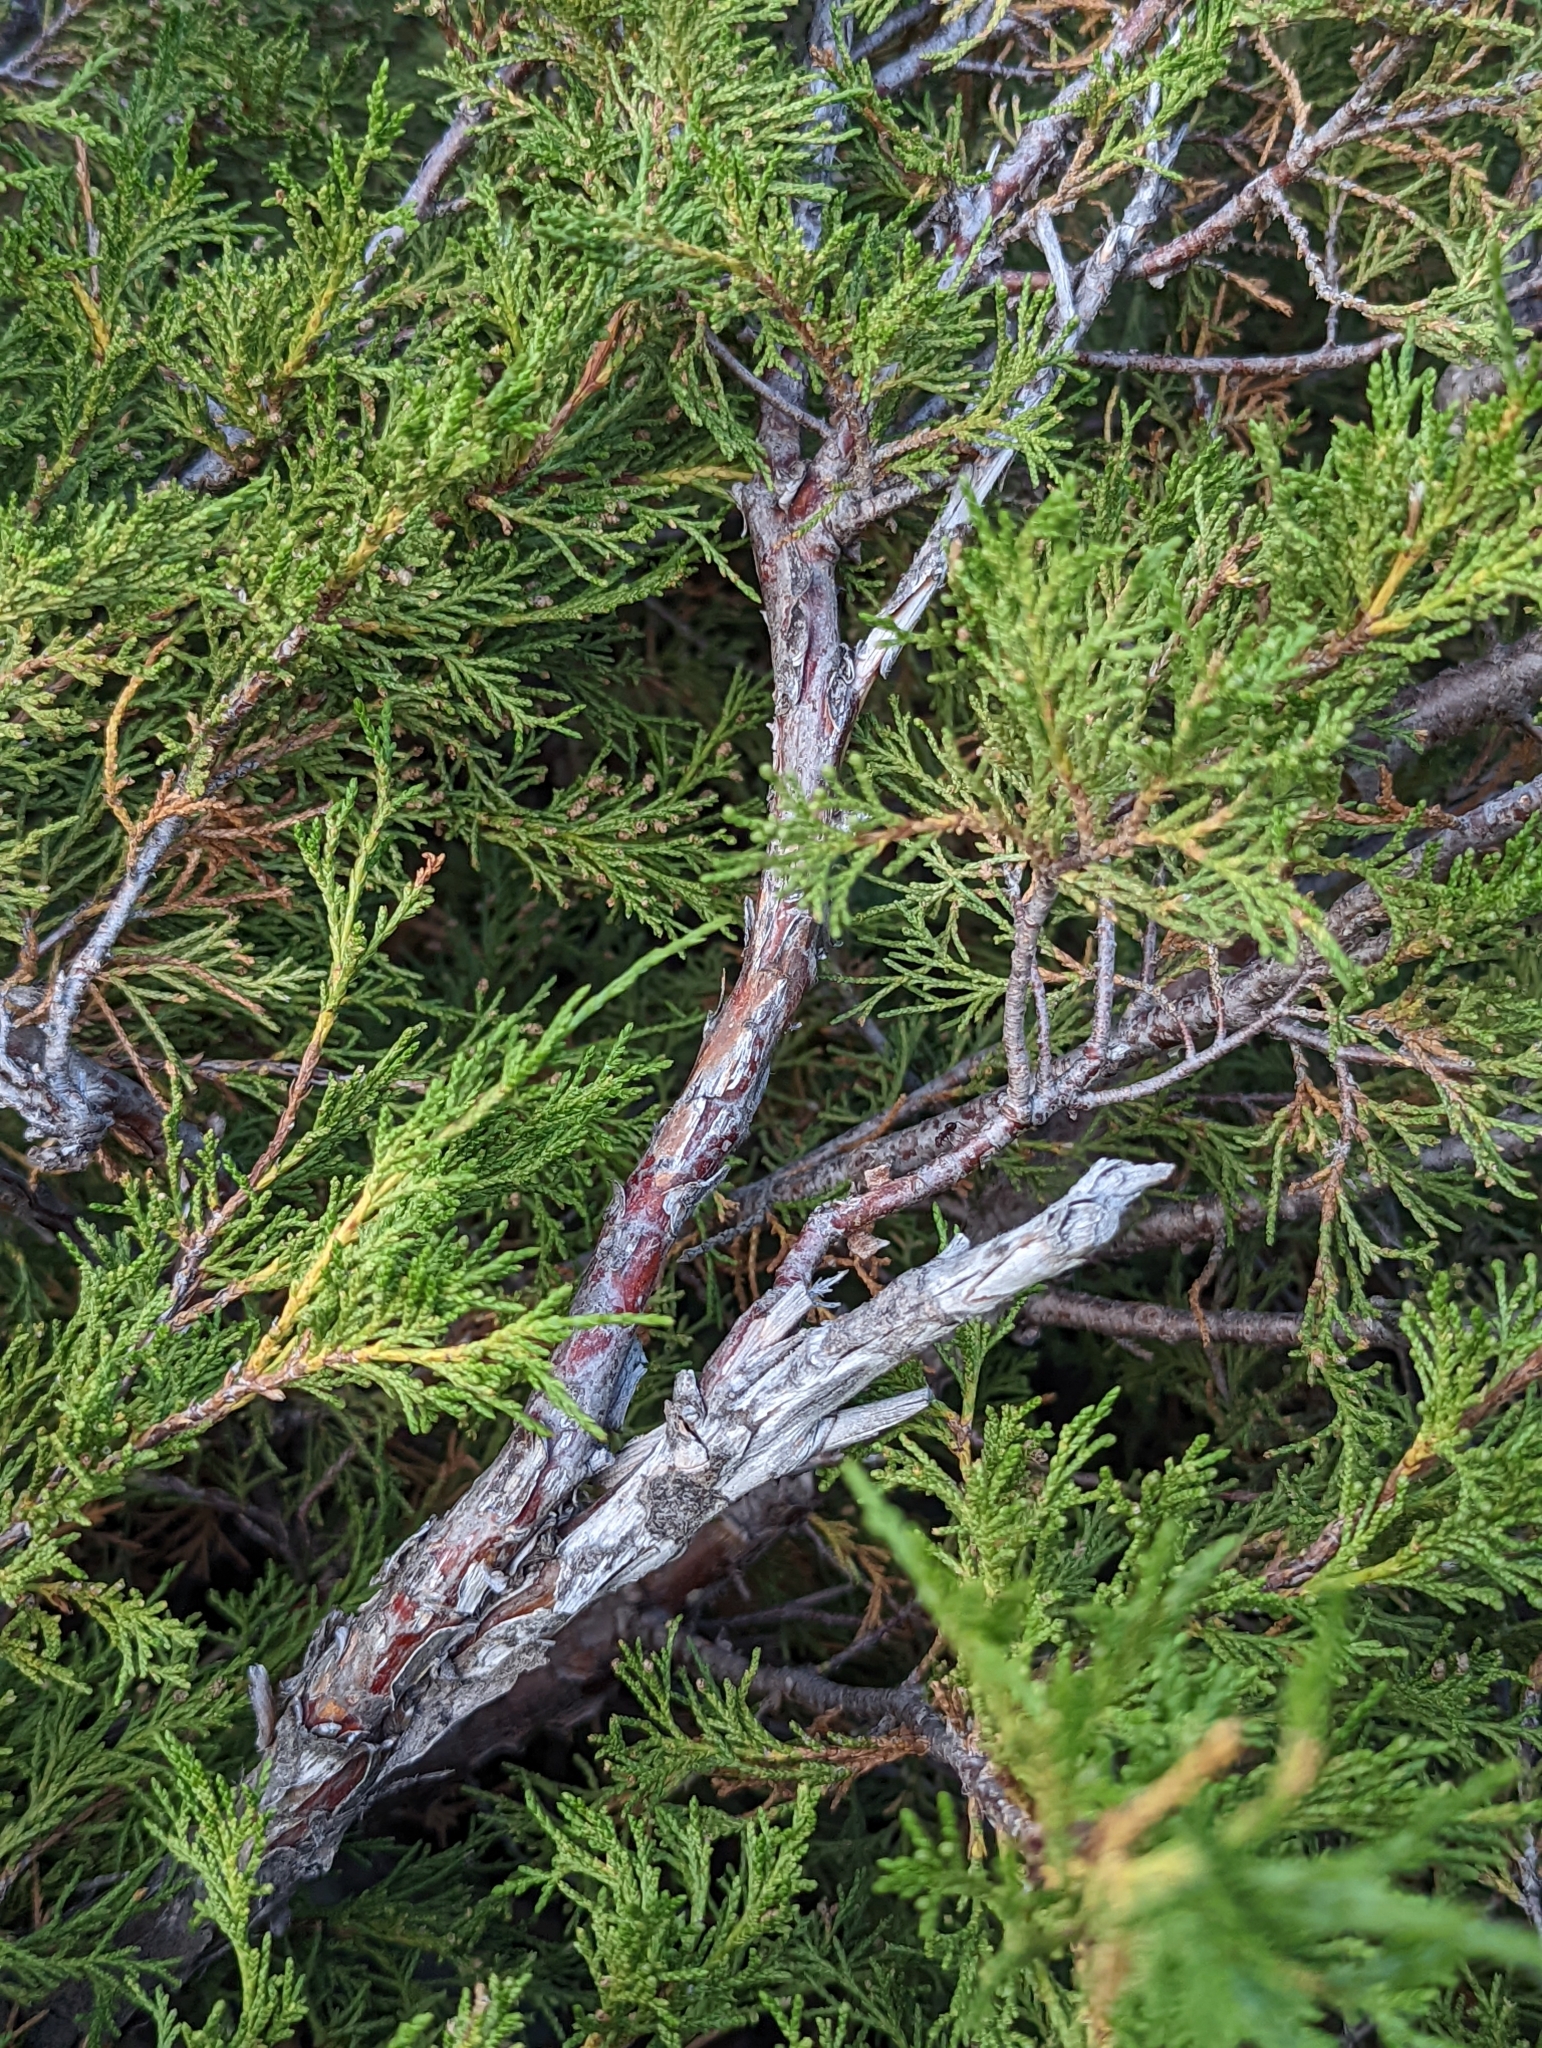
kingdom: Plantae
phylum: Tracheophyta
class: Pinopsida
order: Pinales
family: Cupressaceae
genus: Juniperus
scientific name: Juniperus scopulorum
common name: Rocky mountain juniper
